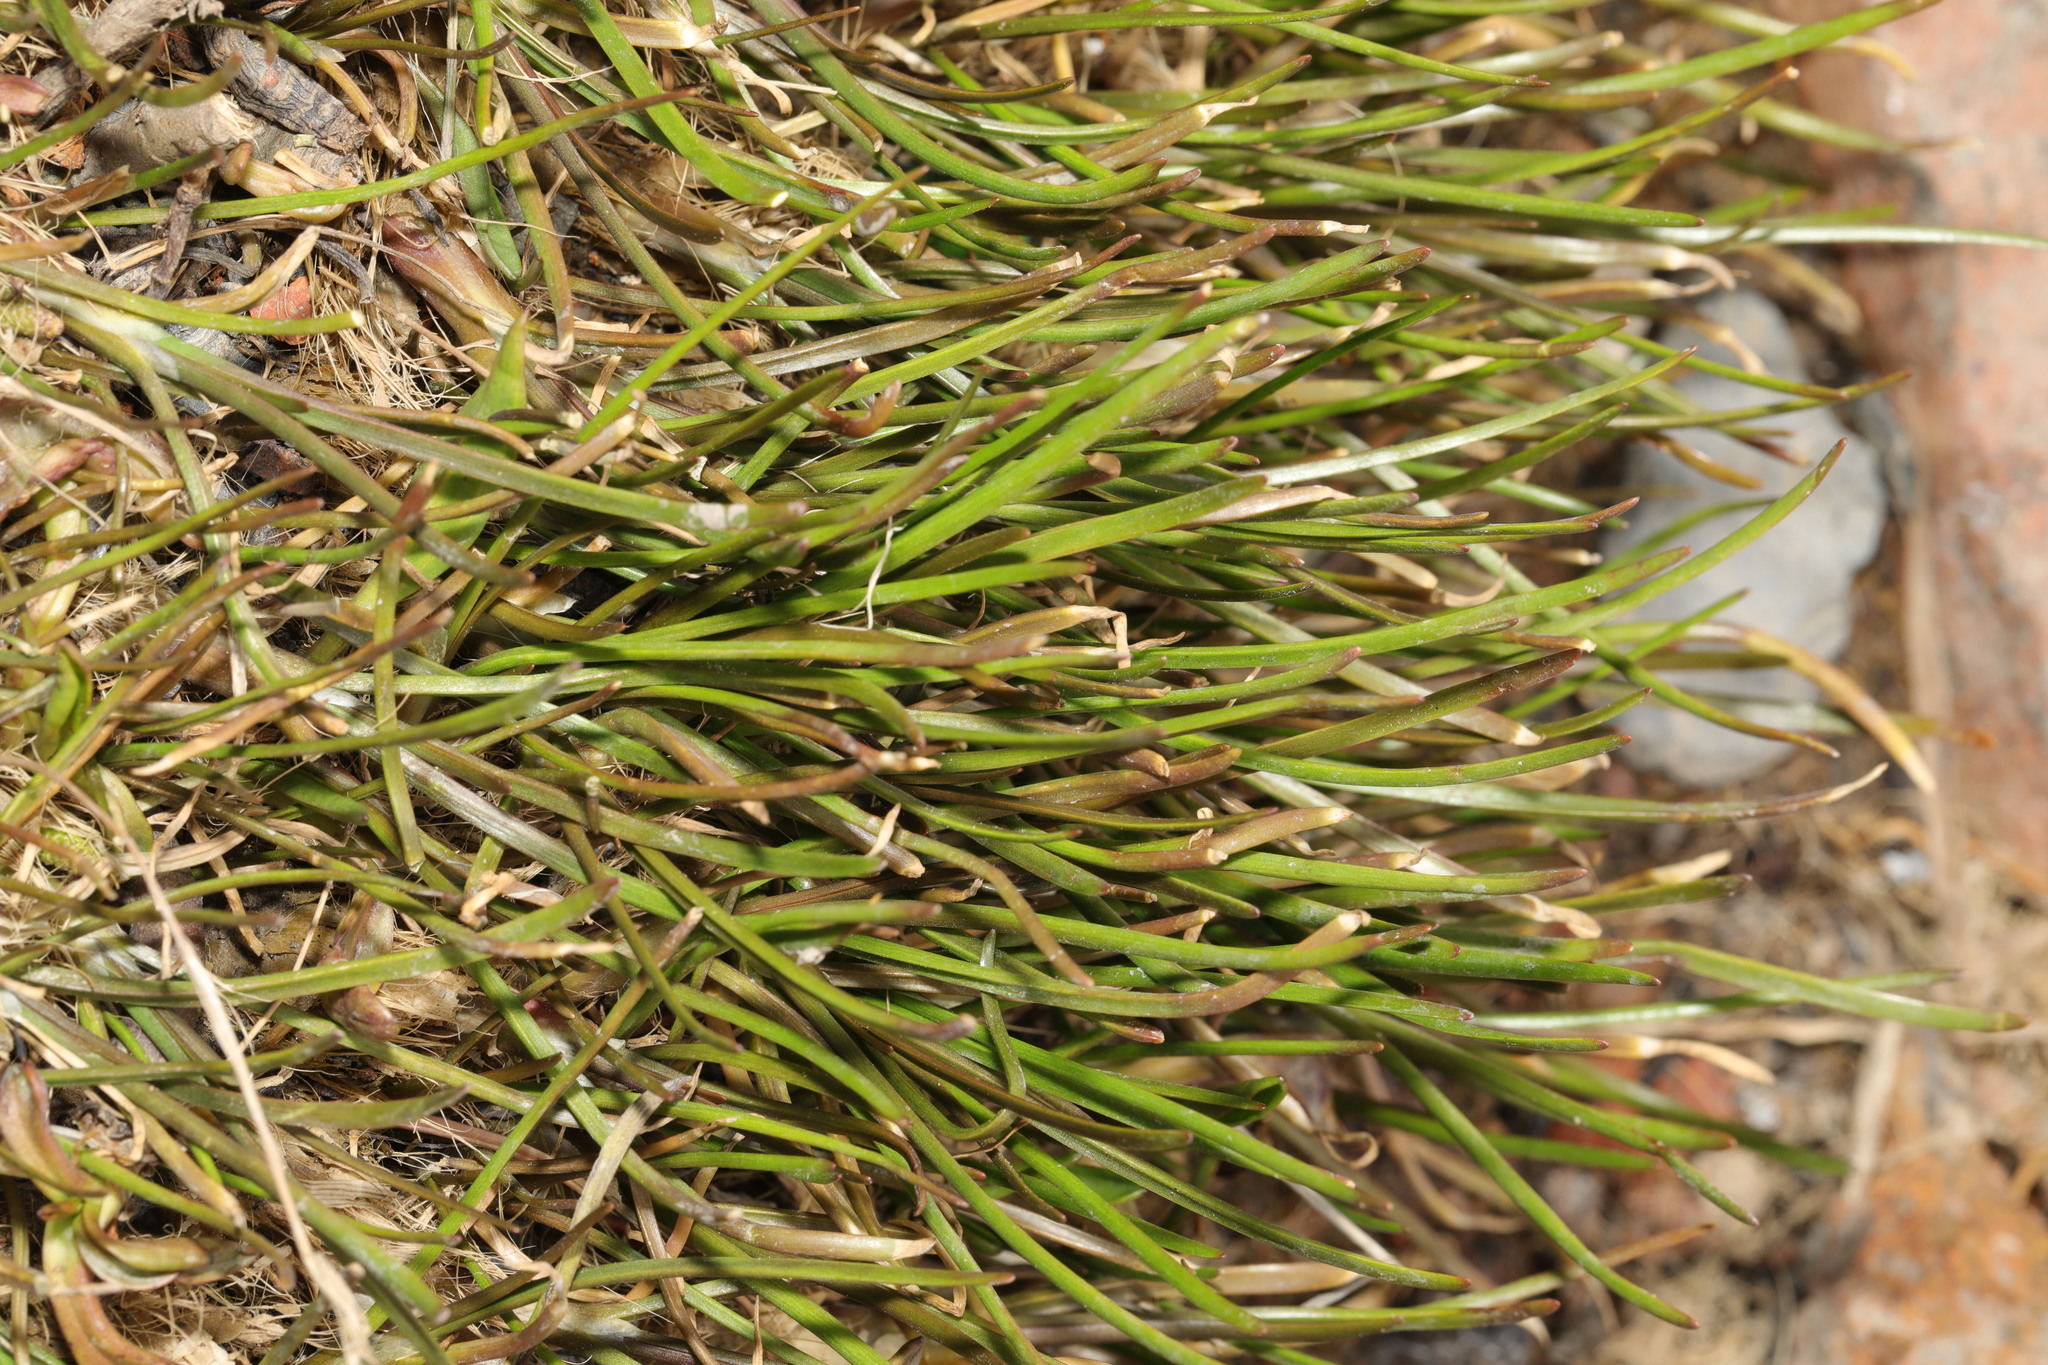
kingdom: Plantae
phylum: Tracheophyta
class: Magnoliopsida
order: Lamiales
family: Plantaginaceae
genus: Plantago
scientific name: Plantago maritima
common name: Sea plantain
